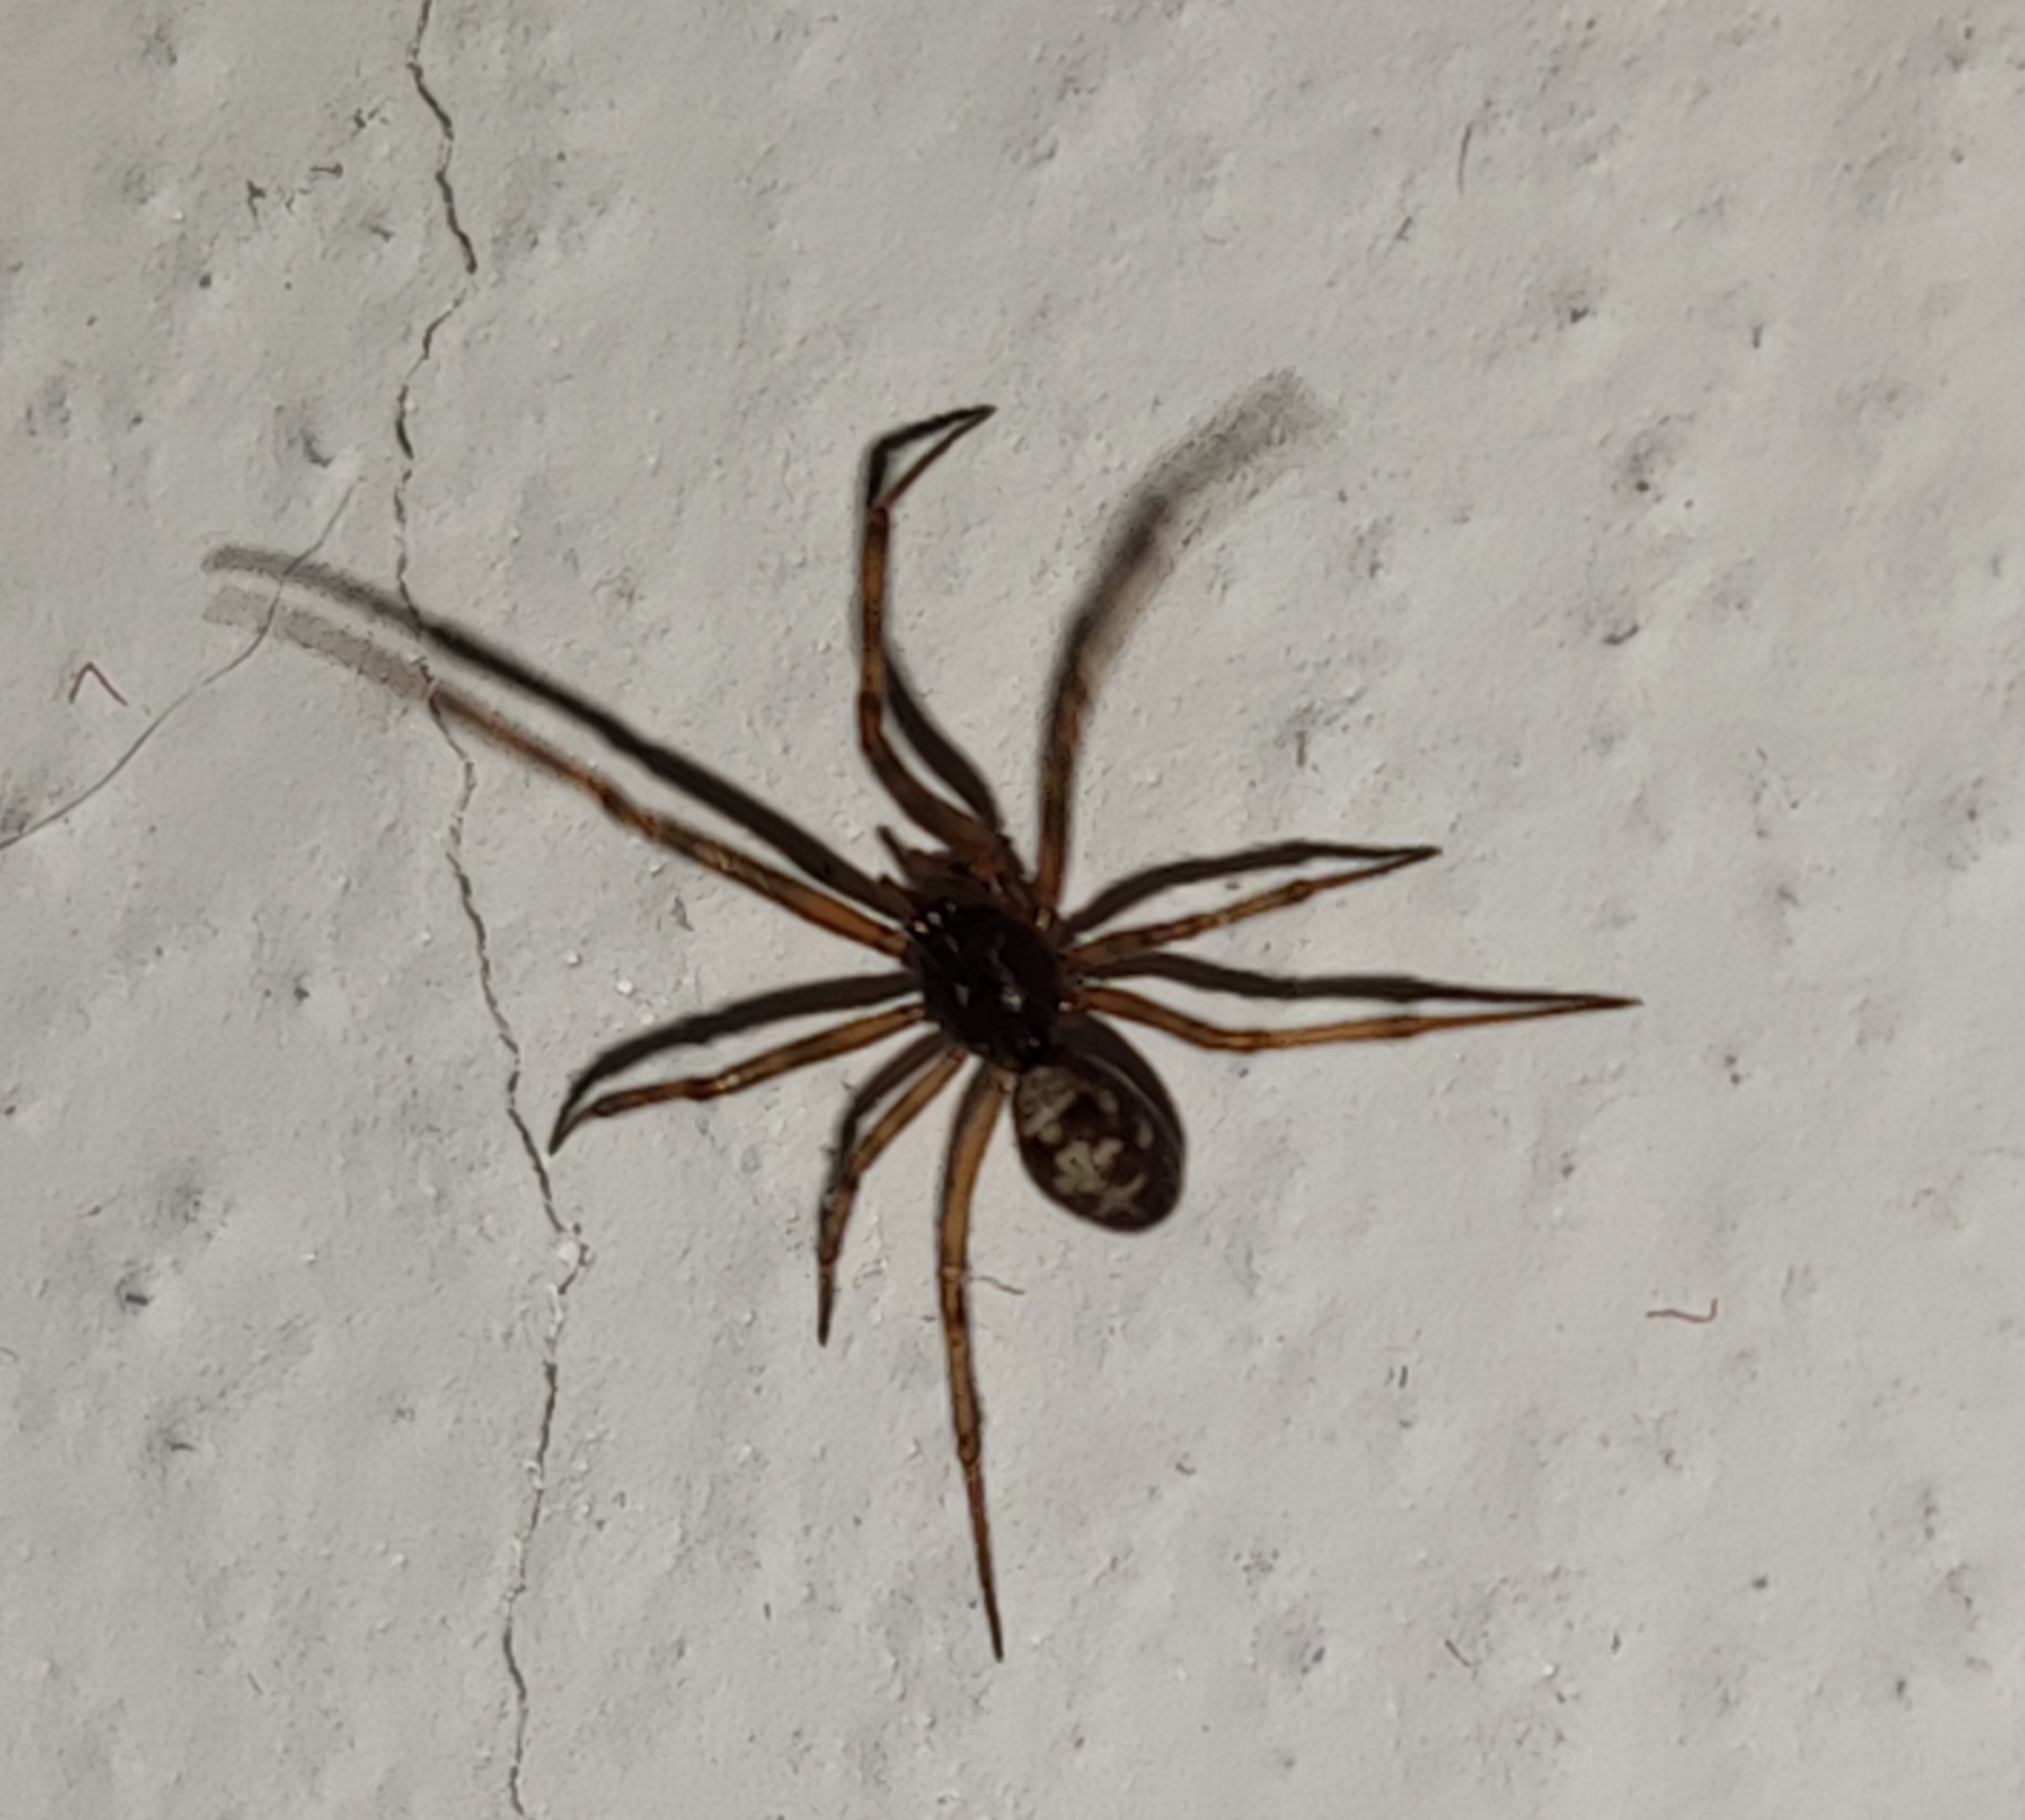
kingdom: Animalia
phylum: Arthropoda
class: Arachnida
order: Araneae
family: Theridiidae
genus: Steatoda
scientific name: Steatoda triangulosa
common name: Triangulate bud spider
